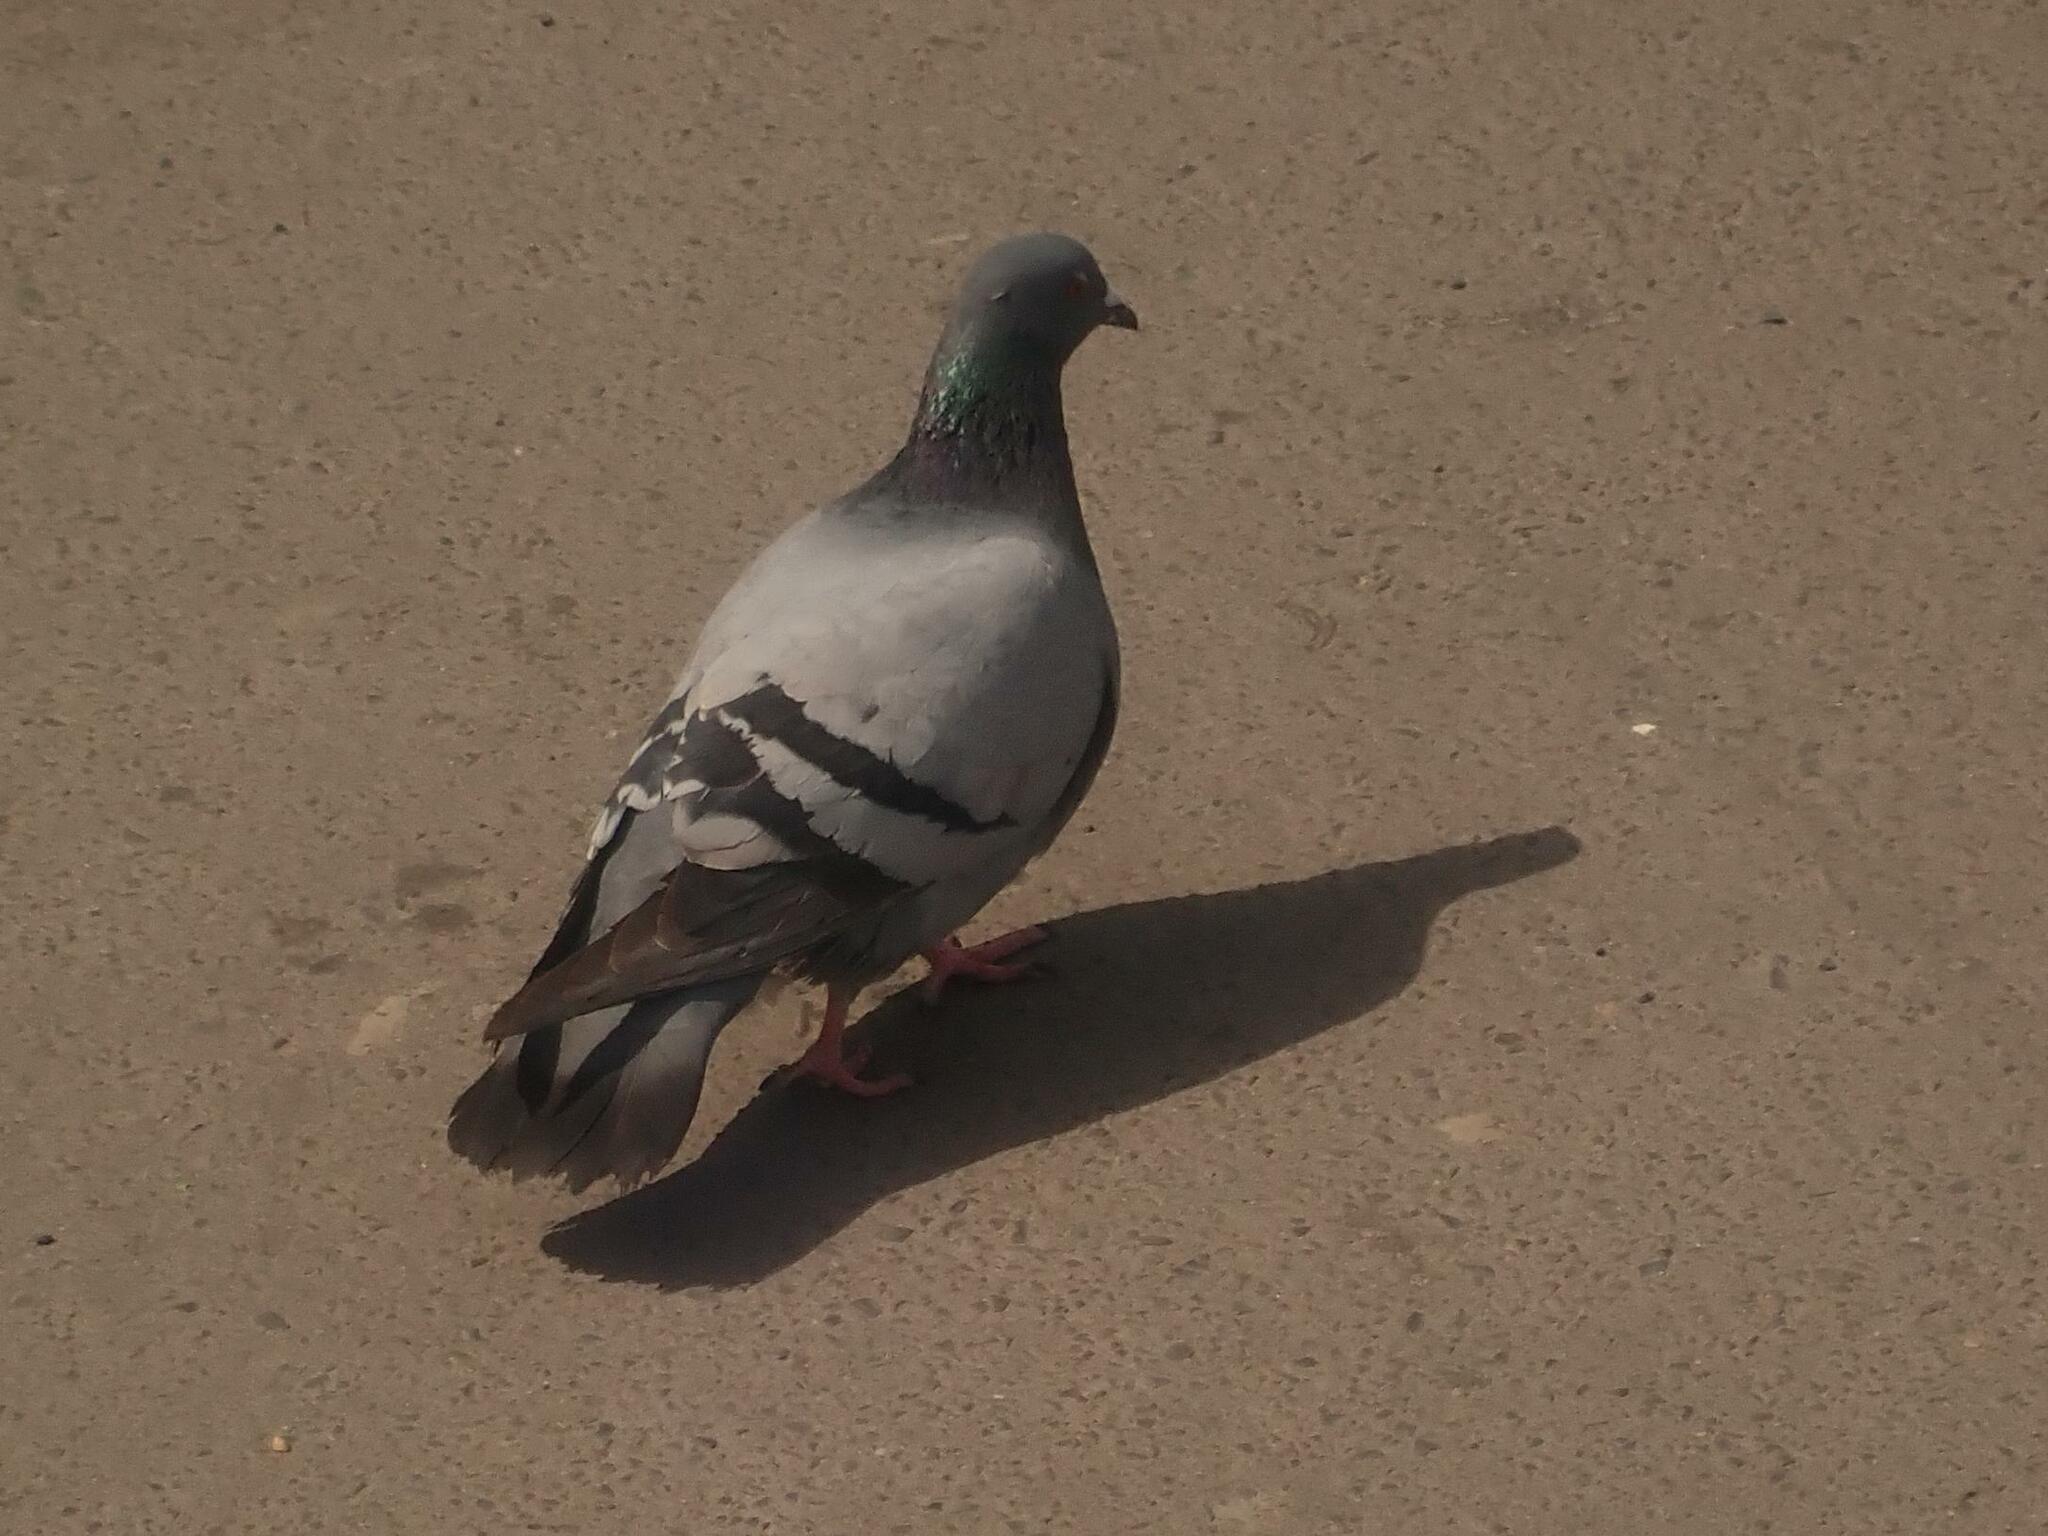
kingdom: Animalia
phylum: Chordata
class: Aves
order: Columbiformes
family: Columbidae
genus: Columba
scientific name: Columba livia
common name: Rock pigeon
